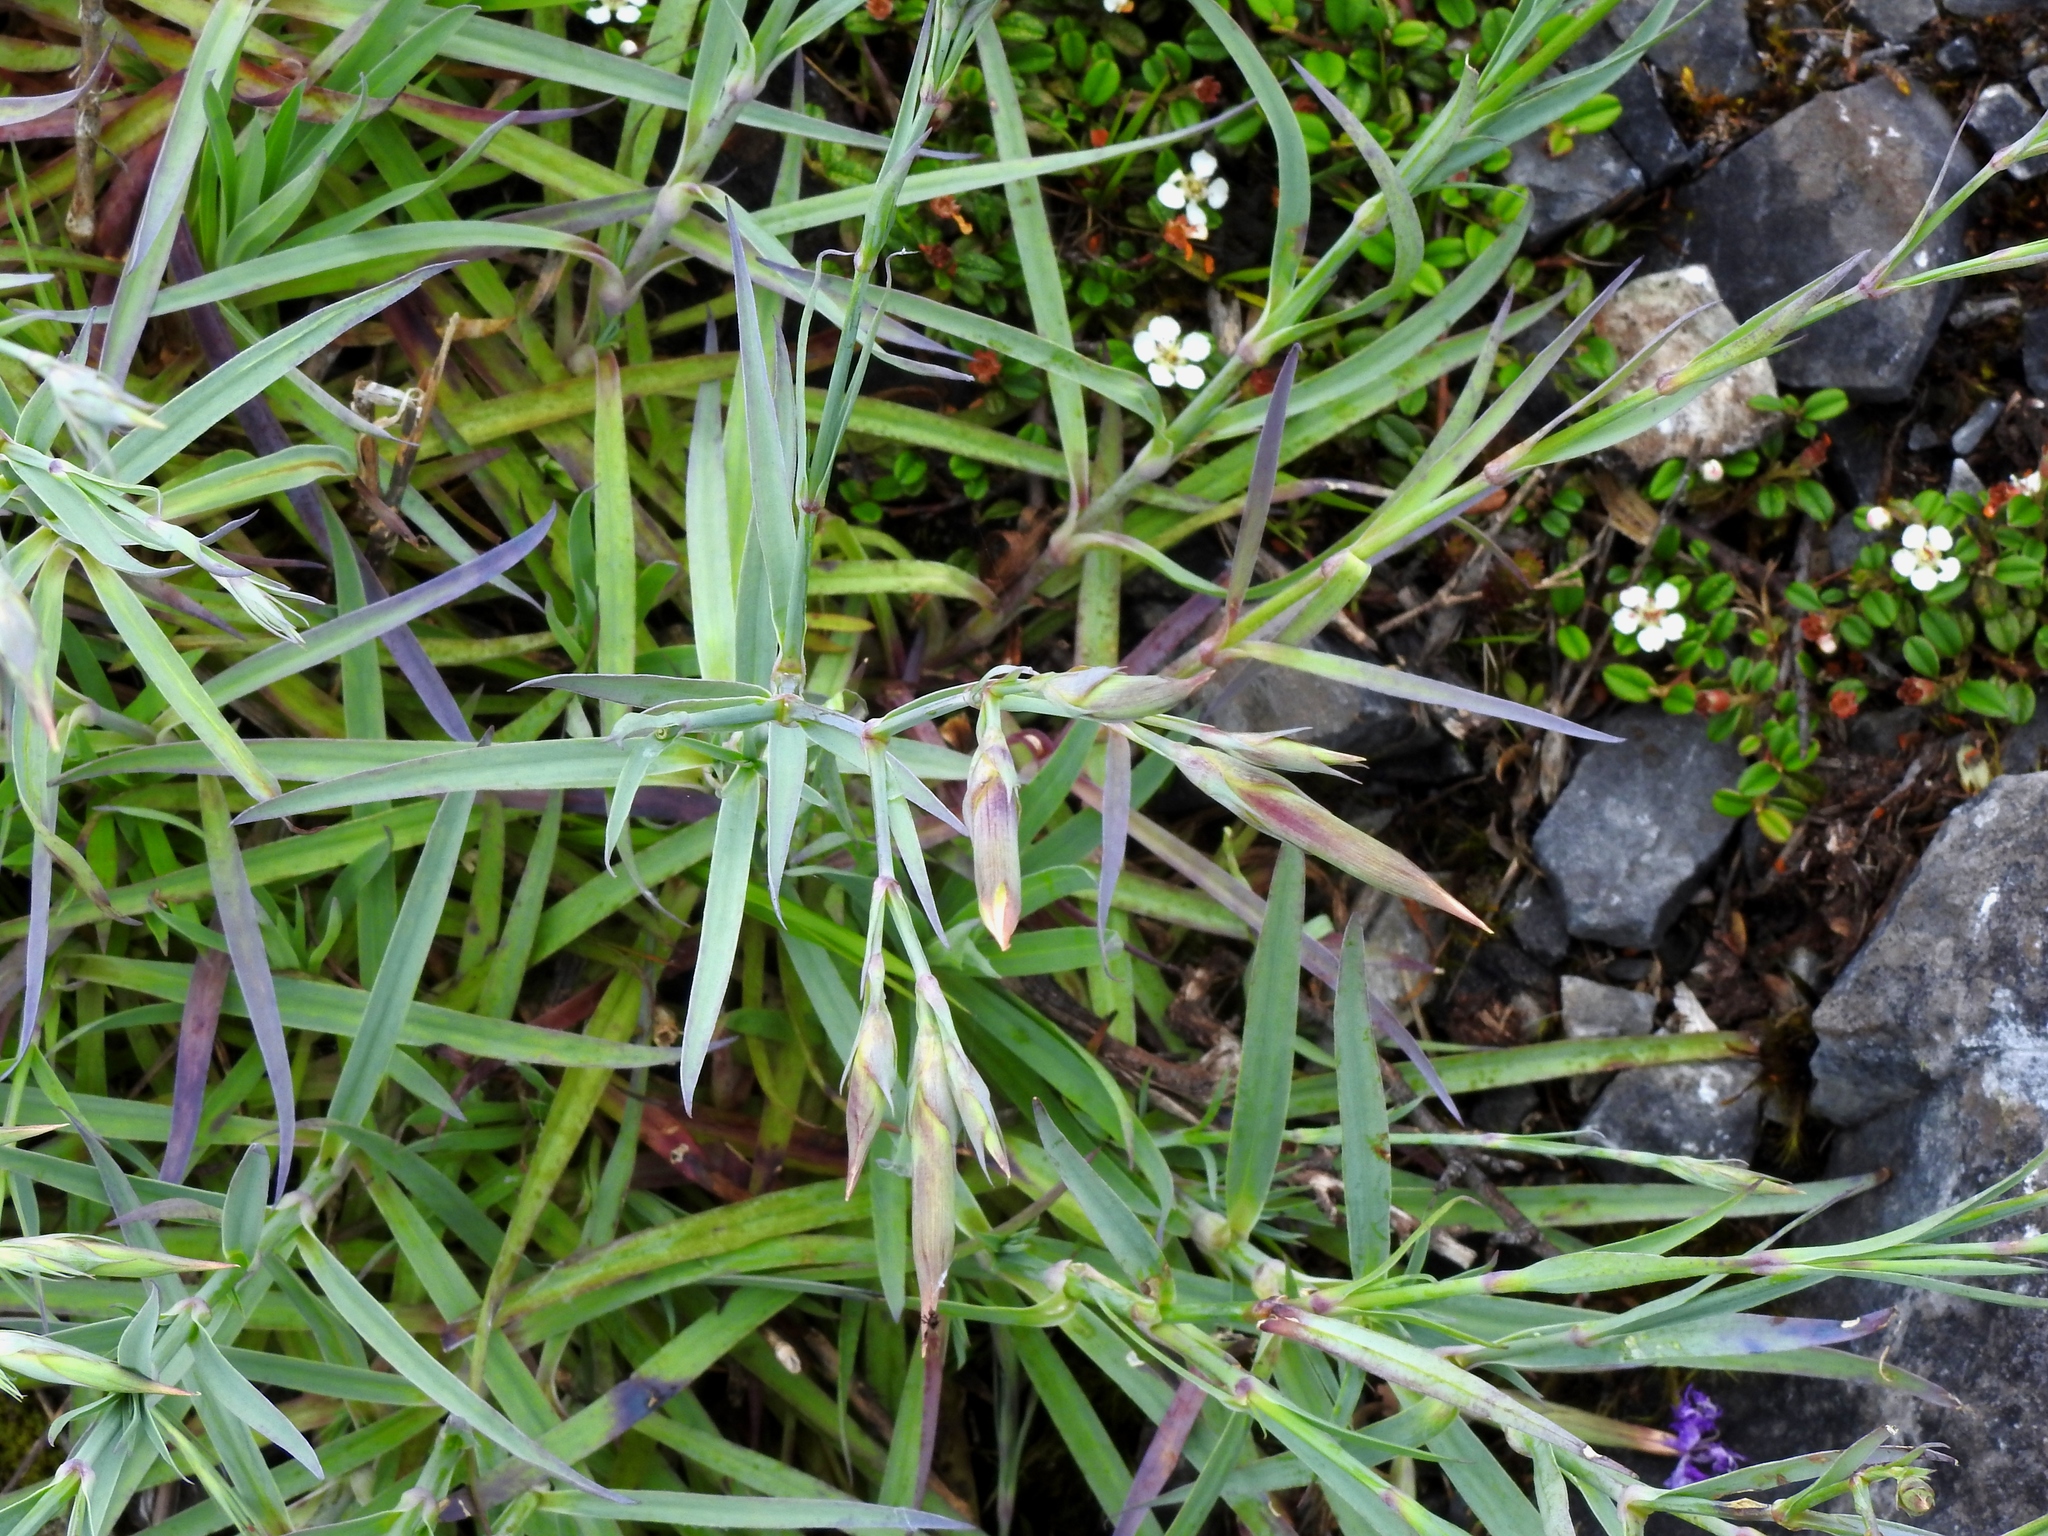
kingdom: Plantae
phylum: Tracheophyta
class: Magnoliopsida
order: Caryophyllales
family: Caryophyllaceae
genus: Dianthus
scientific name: Dianthus seisuimontanus
